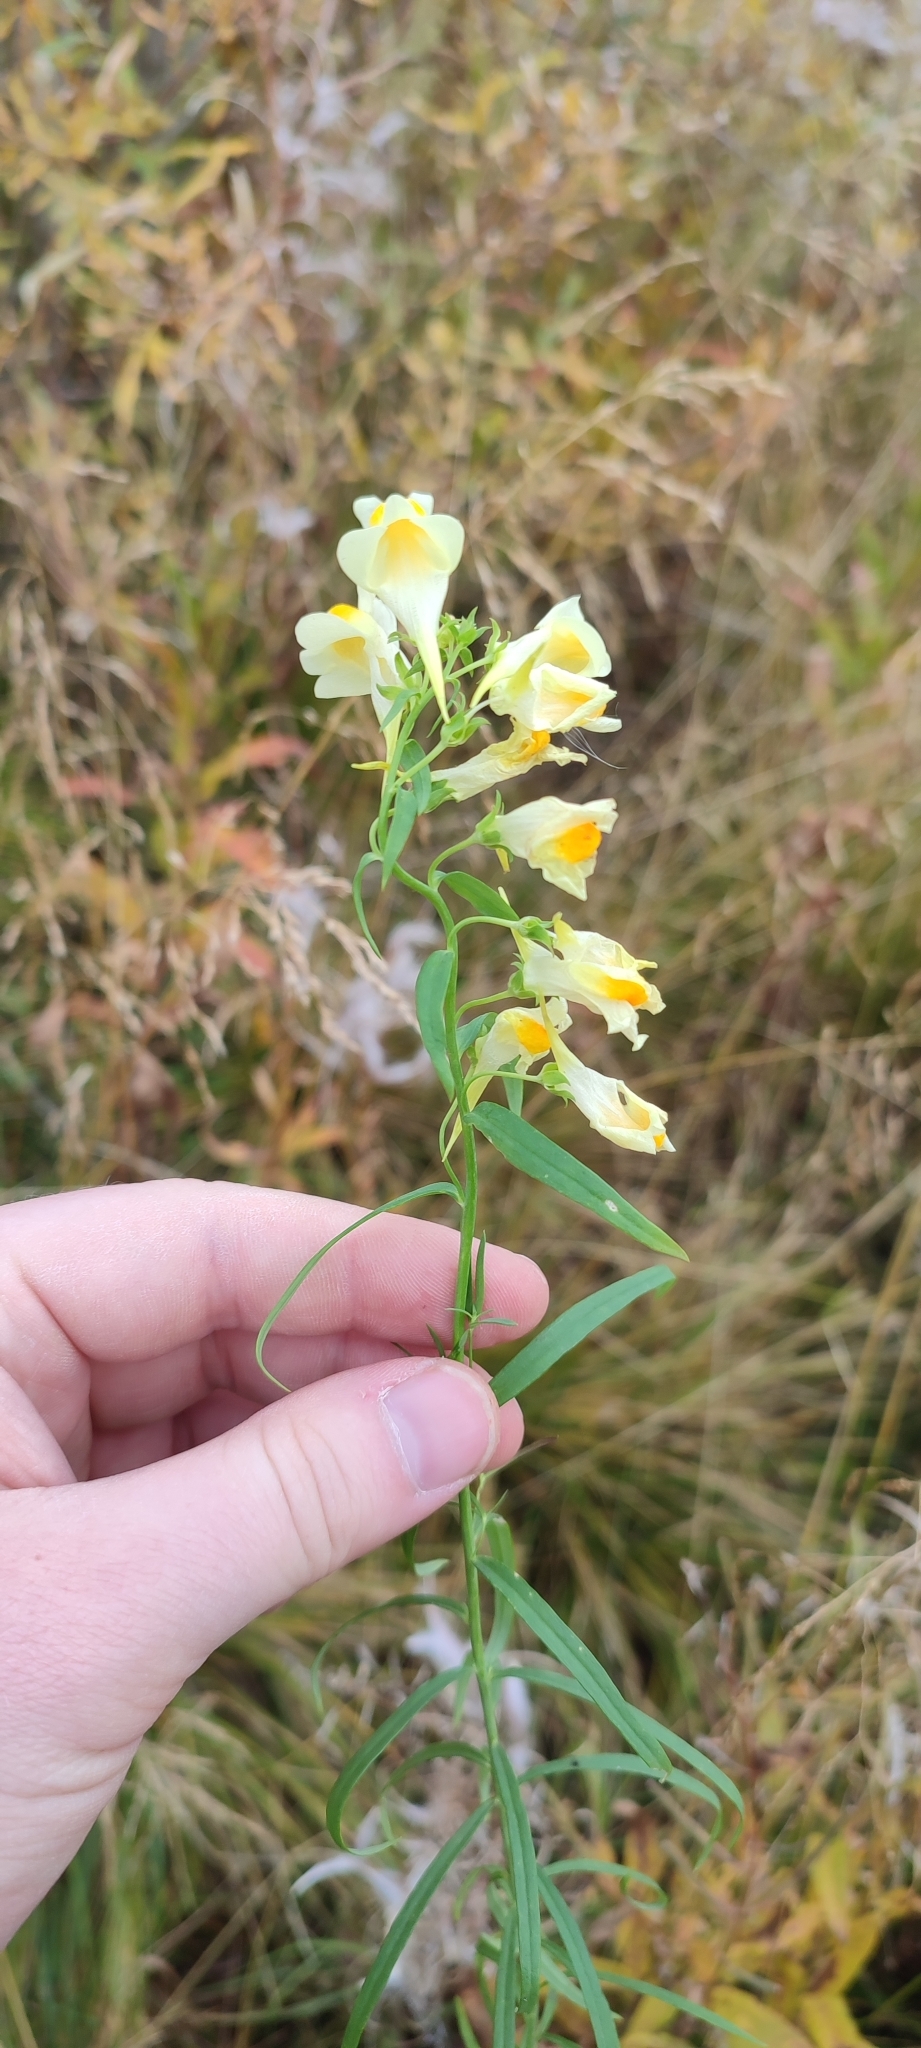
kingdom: Plantae
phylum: Tracheophyta
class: Magnoliopsida
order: Lamiales
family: Plantaginaceae
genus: Linaria
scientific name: Linaria vulgaris
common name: Butter and eggs
